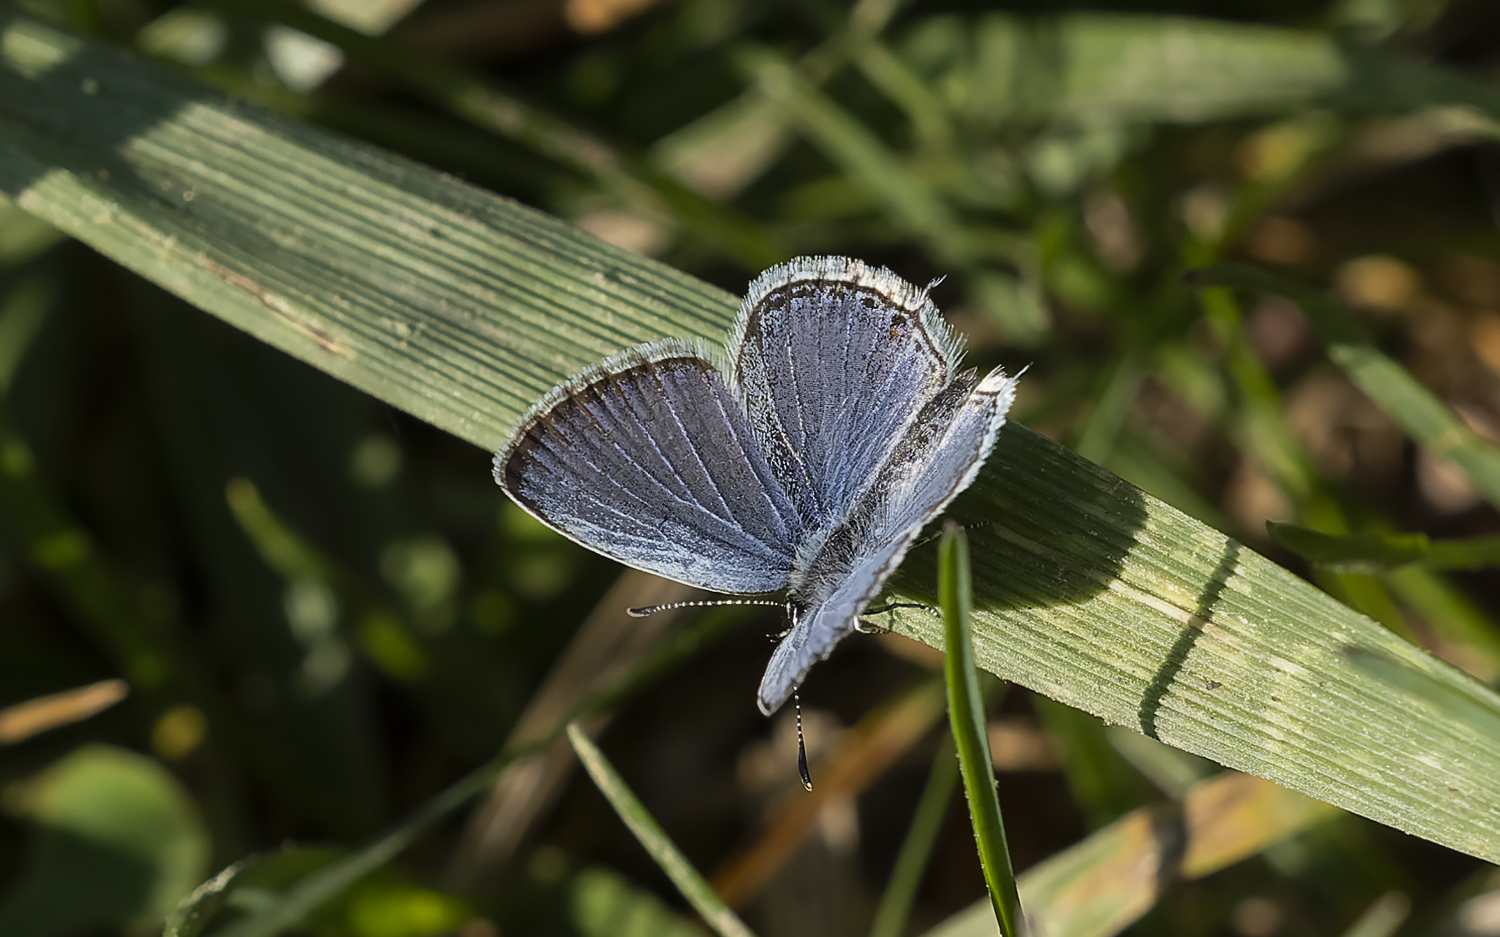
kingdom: Animalia
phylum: Arthropoda
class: Insecta
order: Lepidoptera
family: Lycaenidae
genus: Elkalyce
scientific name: Elkalyce comyntas
